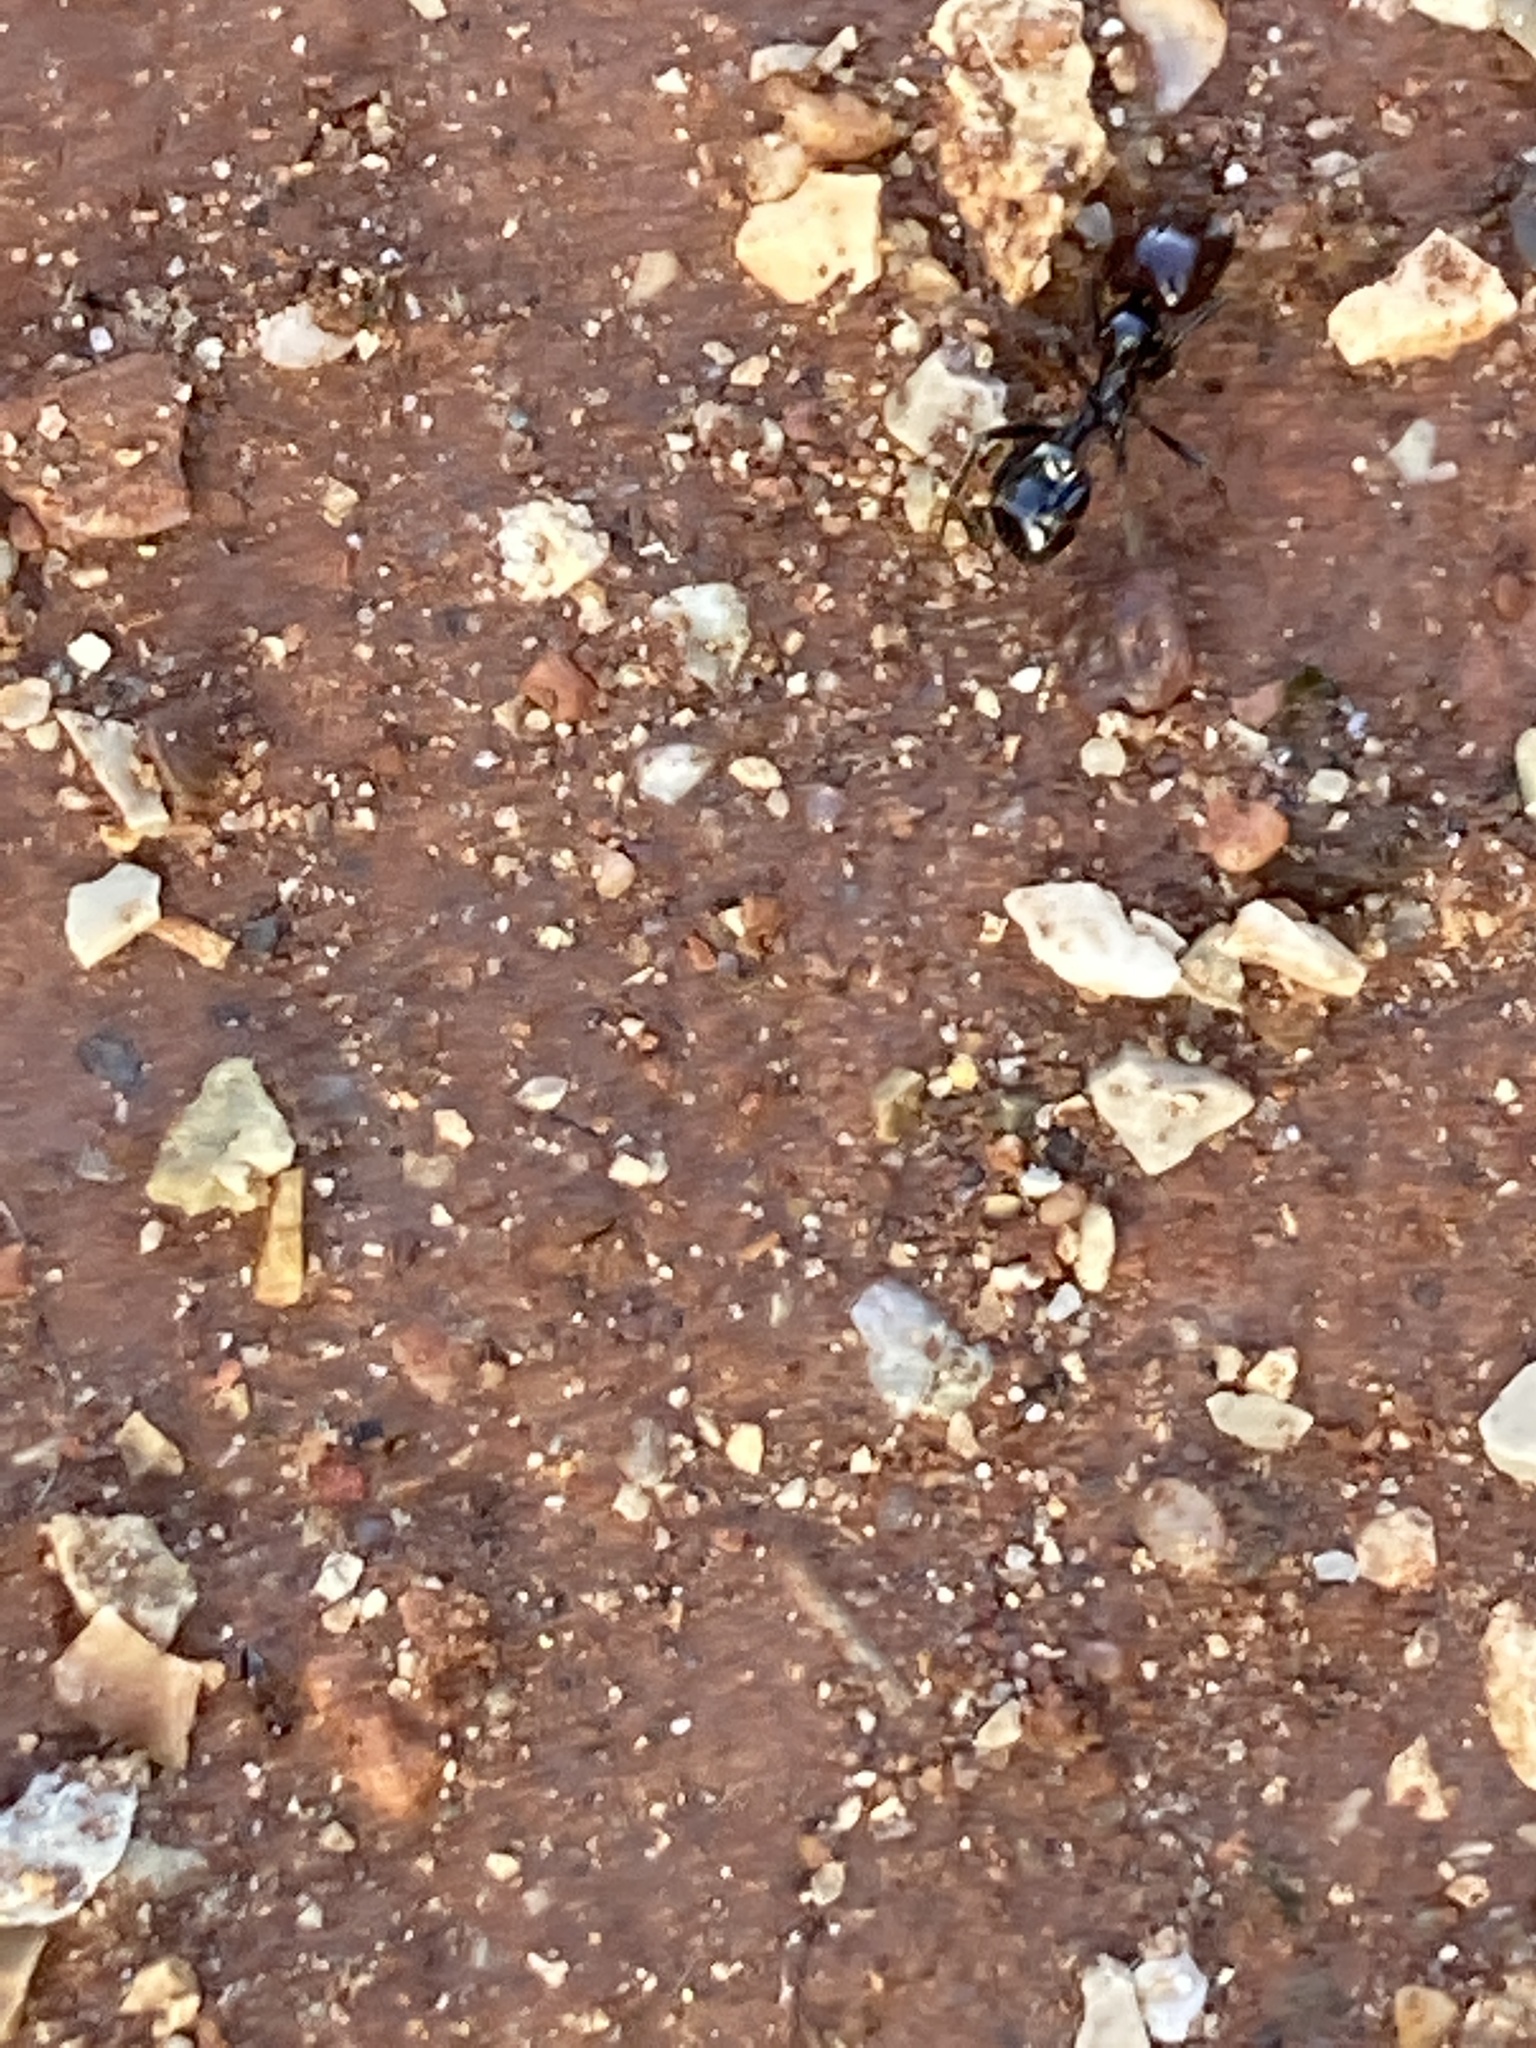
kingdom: Animalia
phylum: Arthropoda
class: Insecta
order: Hymenoptera
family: Formicidae
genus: Messor
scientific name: Messor barbarus
